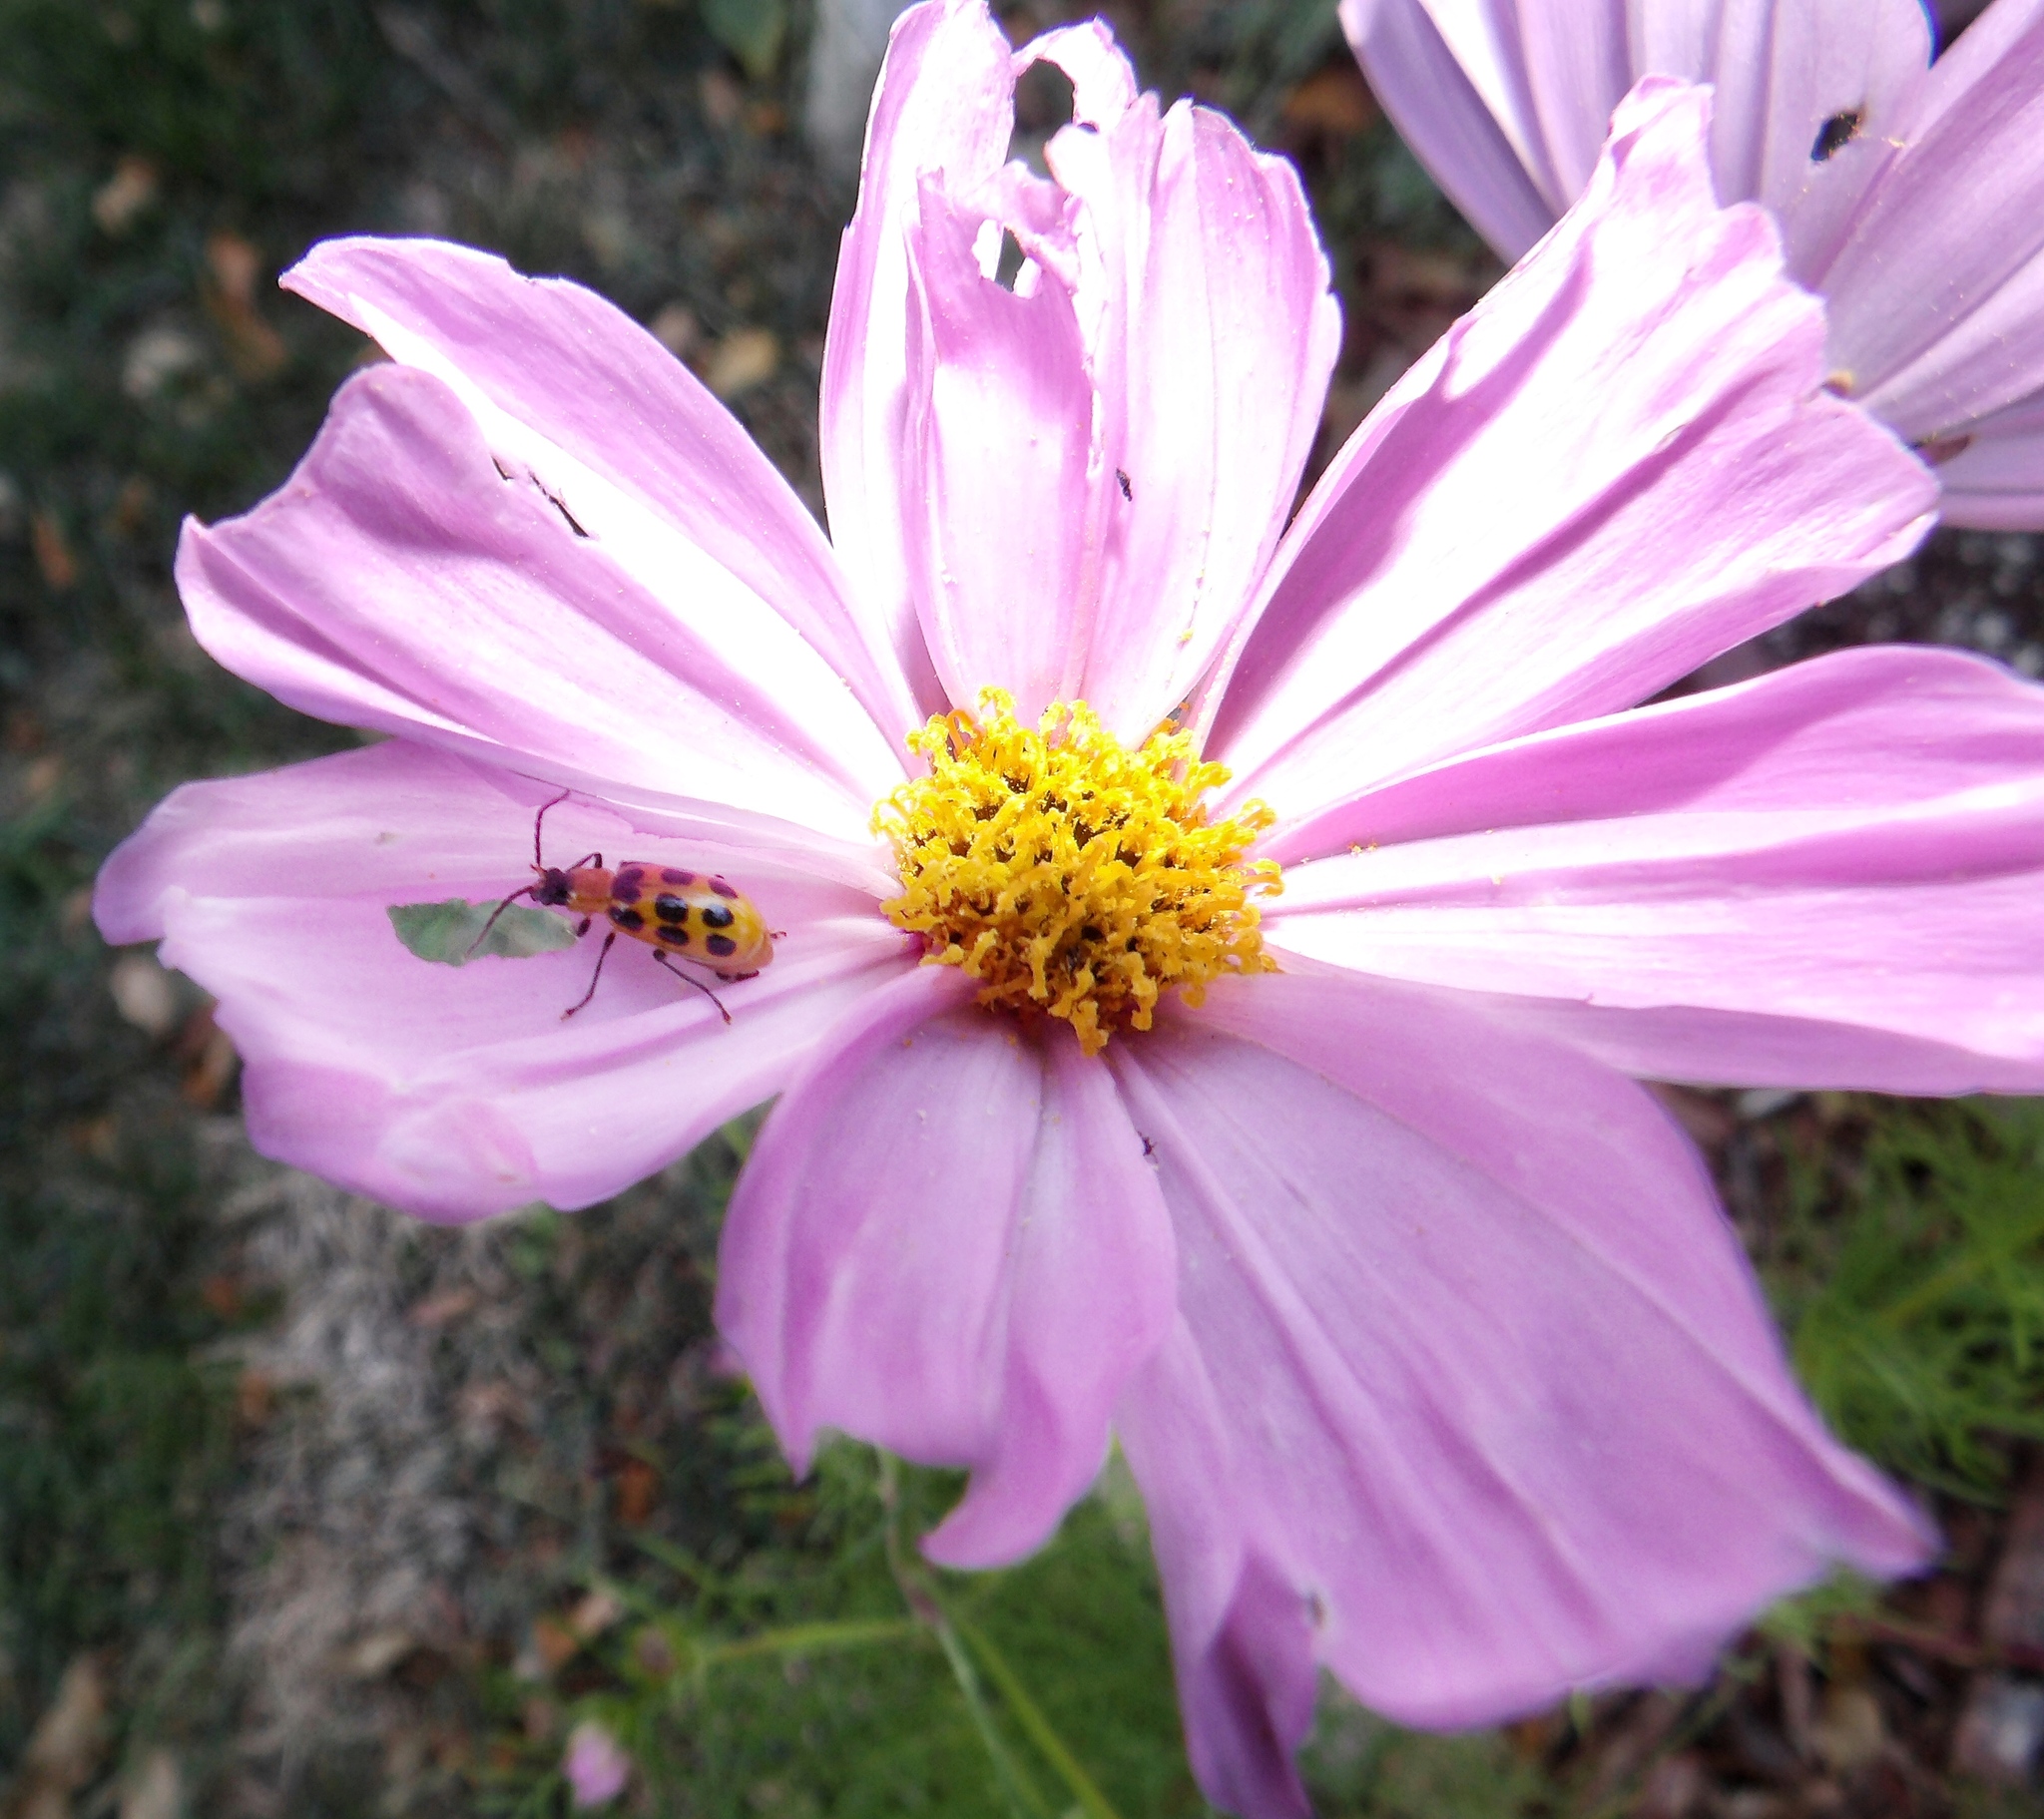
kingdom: Animalia
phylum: Arthropoda
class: Insecta
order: Coleoptera
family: Chrysomelidae
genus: Diabrotica
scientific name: Diabrotica undecimpunctata
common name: Spotted cucumber beetle
